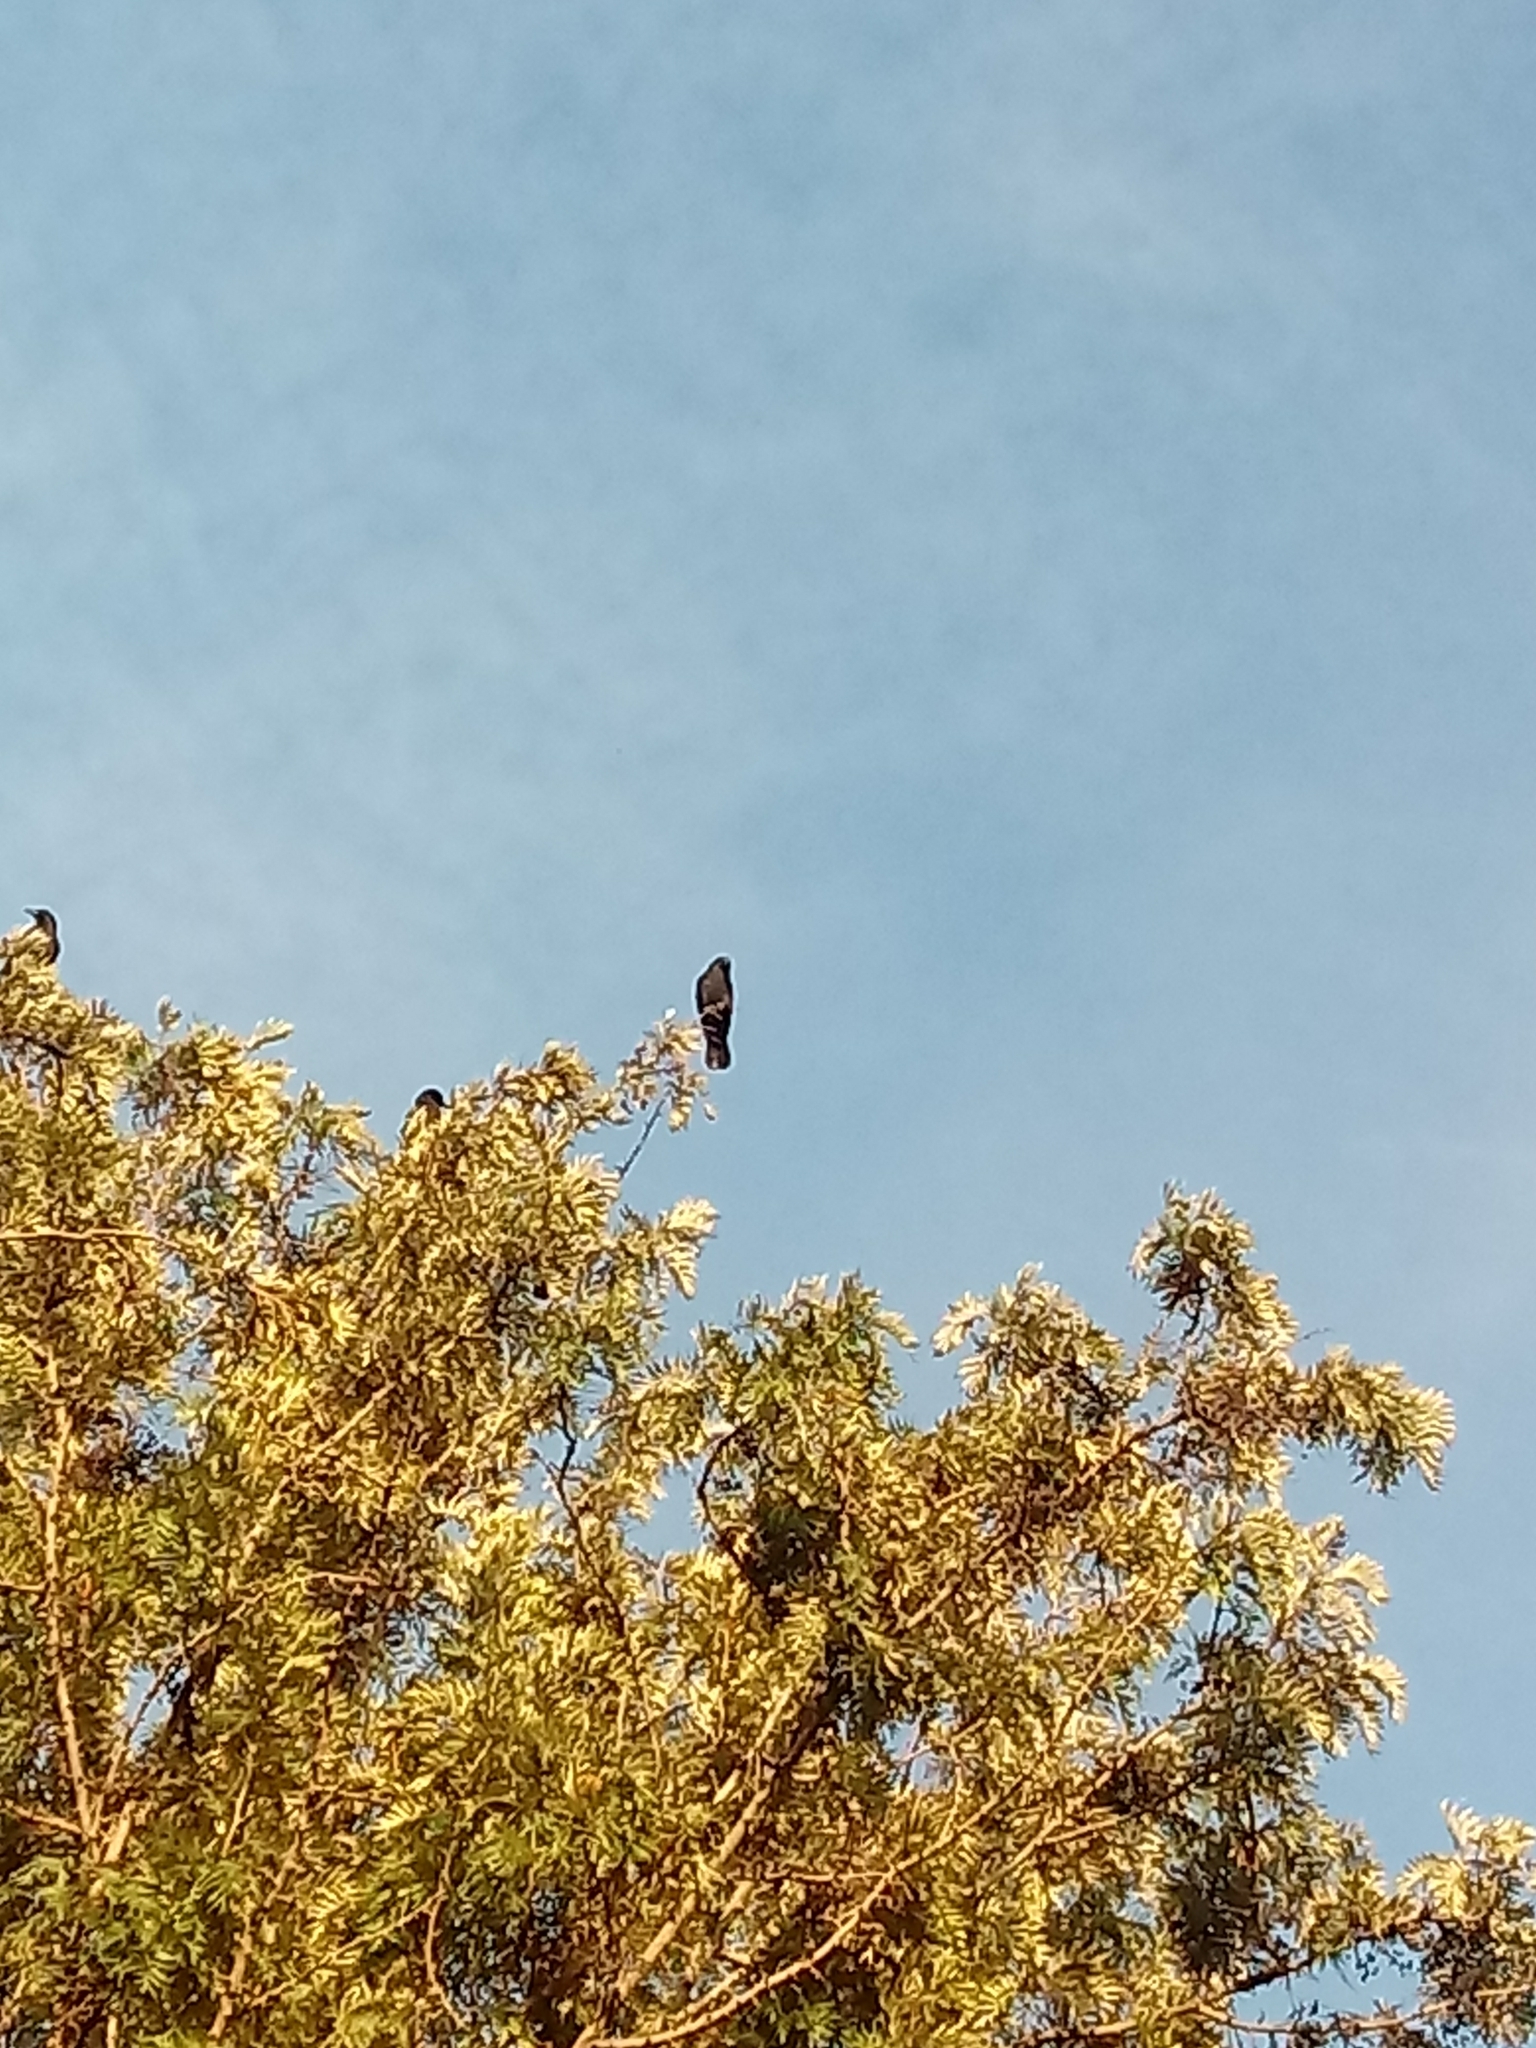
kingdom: Animalia
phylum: Chordata
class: Aves
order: Passeriformes
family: Corvidae
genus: Corvus
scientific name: Corvus brachyrhynchos
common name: American crow
